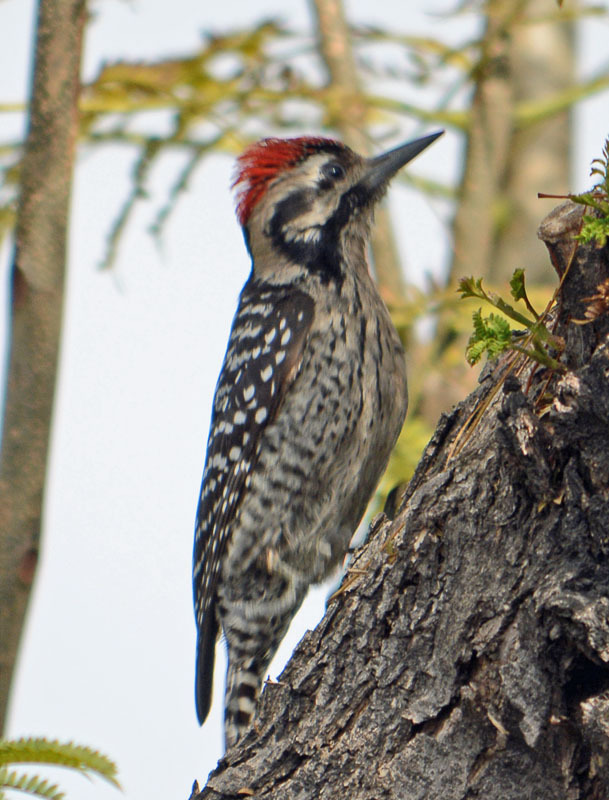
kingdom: Animalia
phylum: Chordata
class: Aves
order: Piciformes
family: Picidae
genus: Dryobates
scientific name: Dryobates scalaris
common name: Ladder-backed woodpecker
